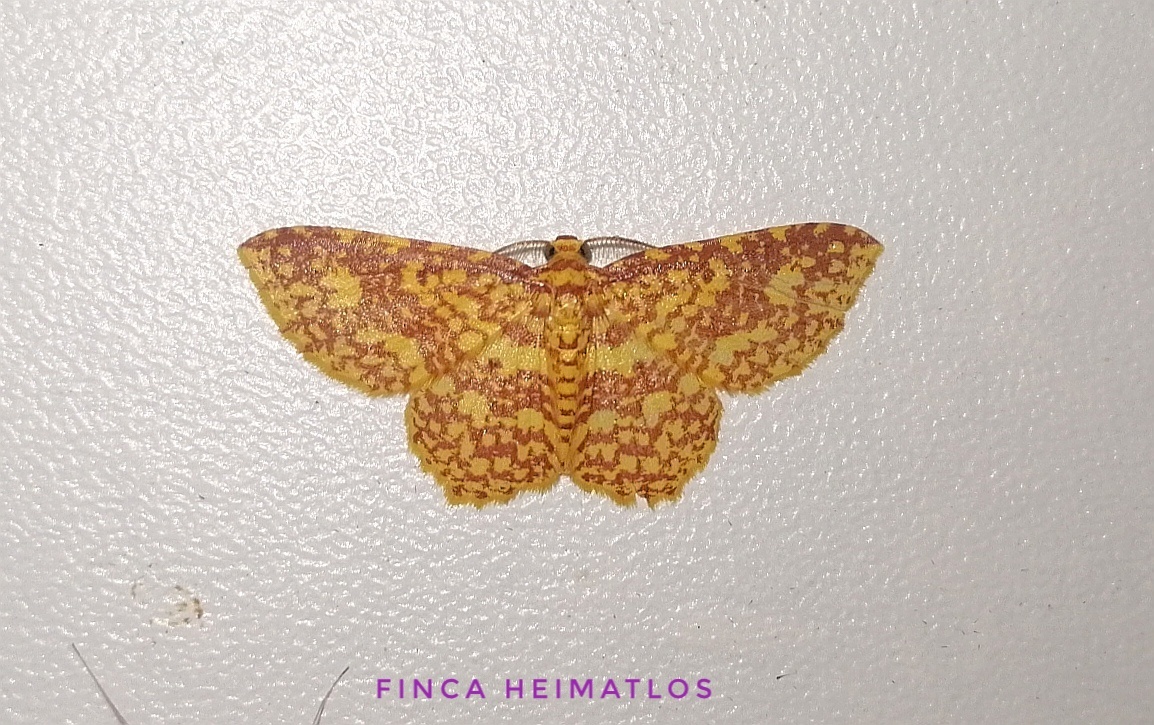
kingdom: Animalia
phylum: Arthropoda
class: Insecta
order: Lepidoptera
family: Geometridae
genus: Eois
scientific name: Eois cancellata
